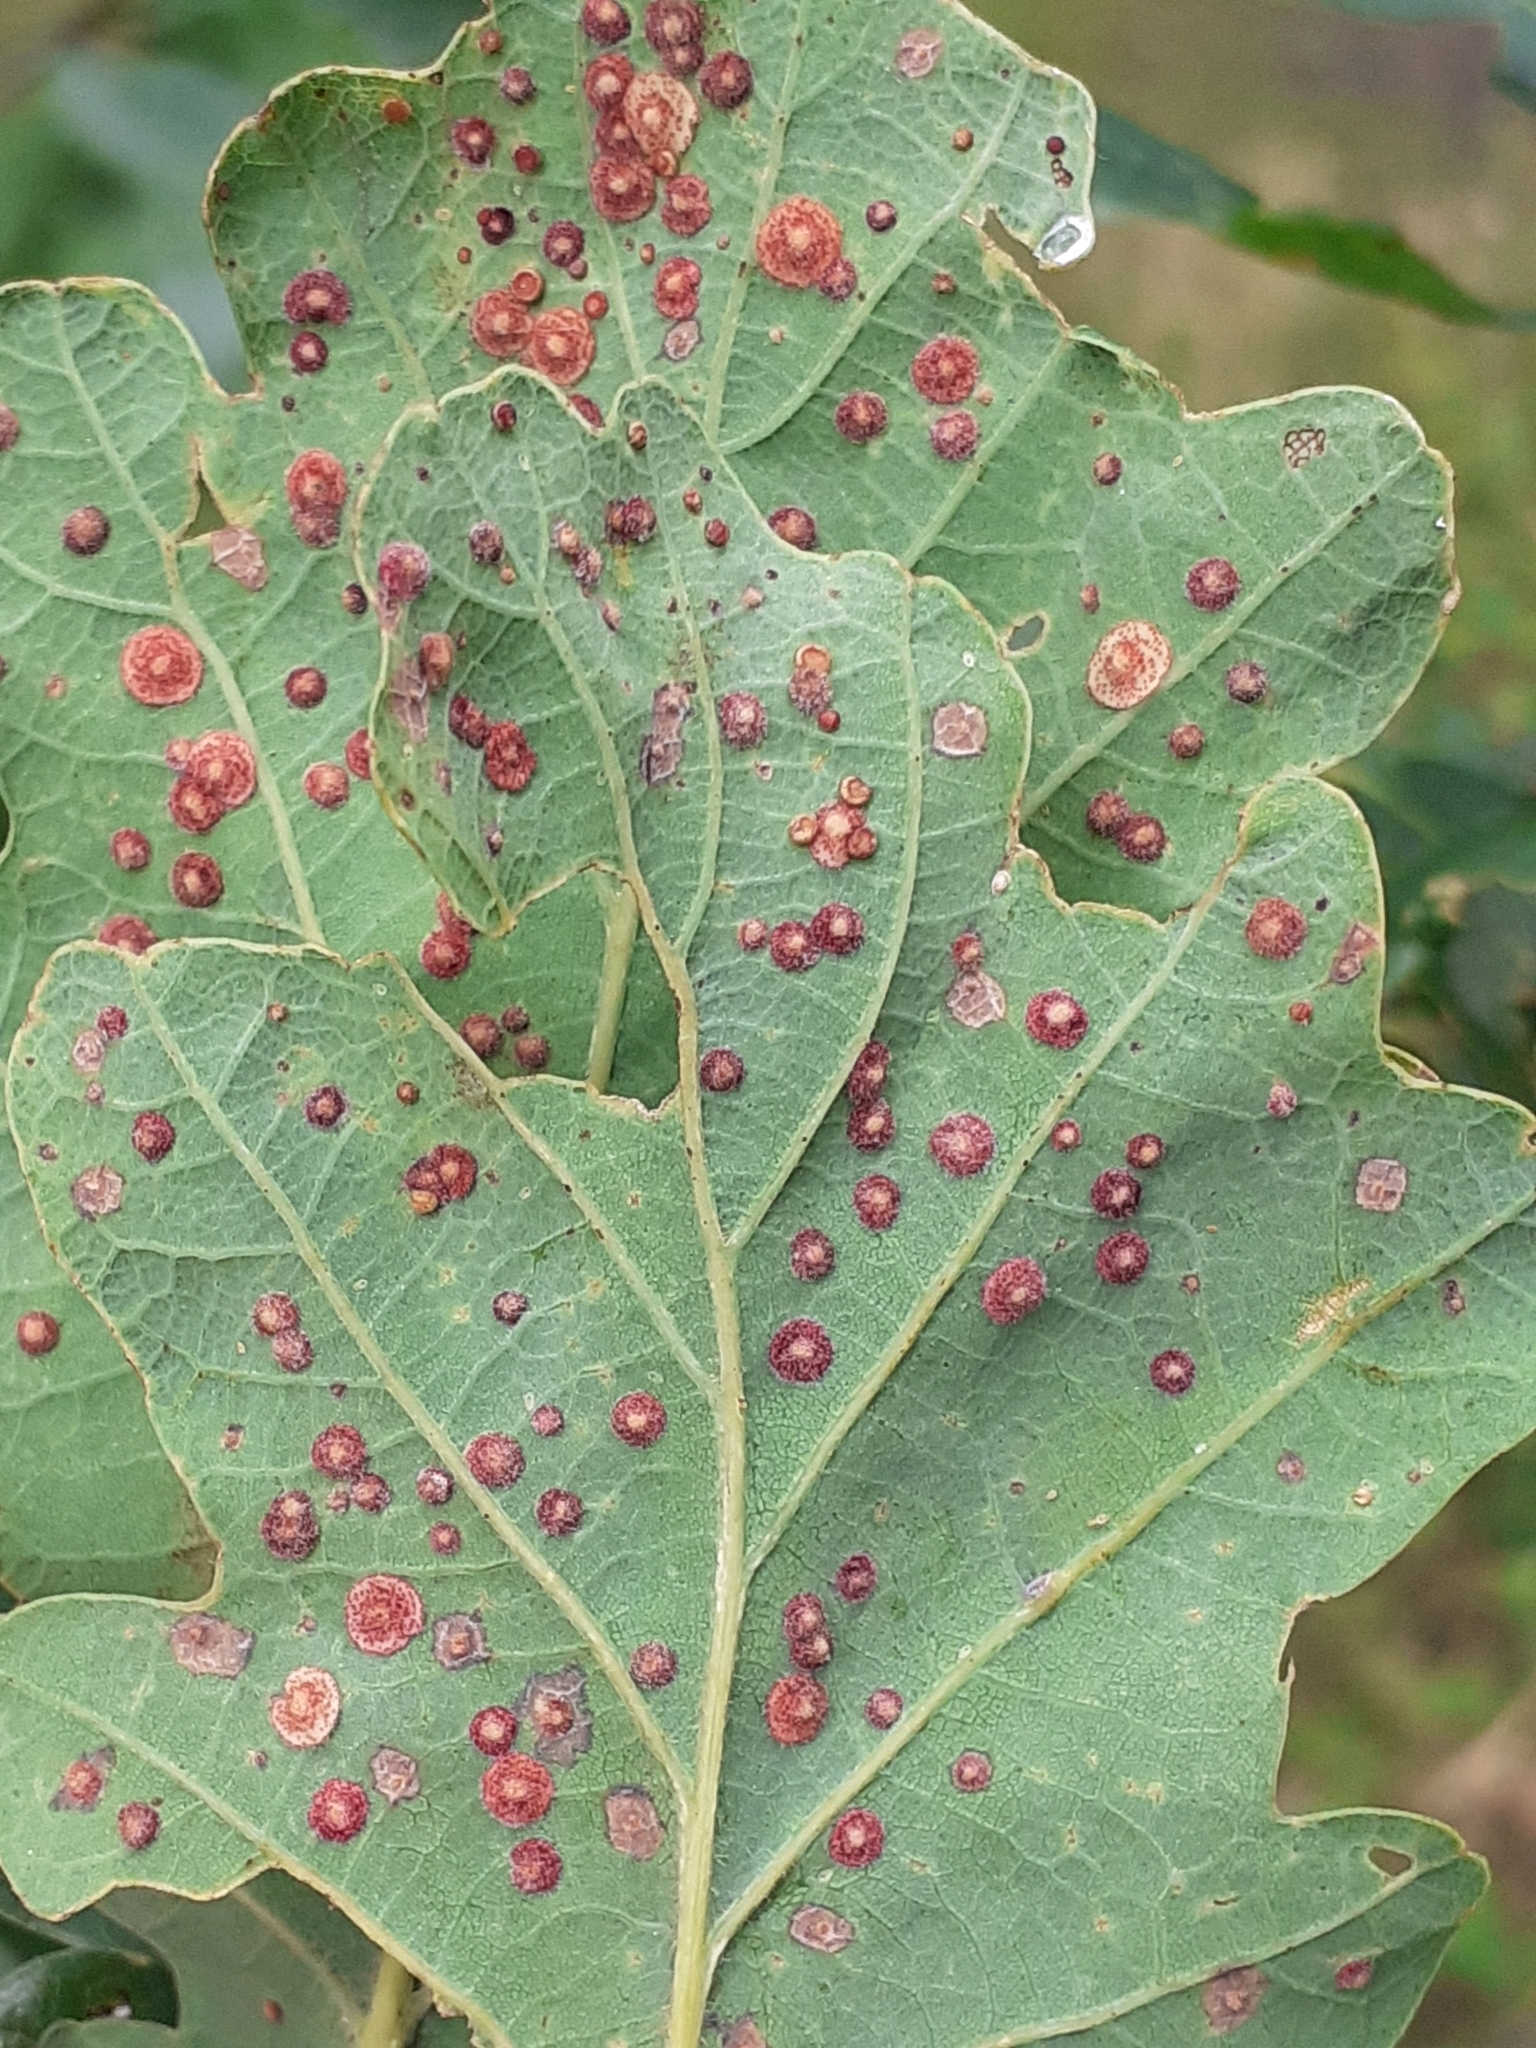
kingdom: Animalia
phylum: Arthropoda
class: Insecta
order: Hymenoptera
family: Cynipidae
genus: Neuroterus
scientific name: Neuroterus quercusbaccarum
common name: Common spangle gall
